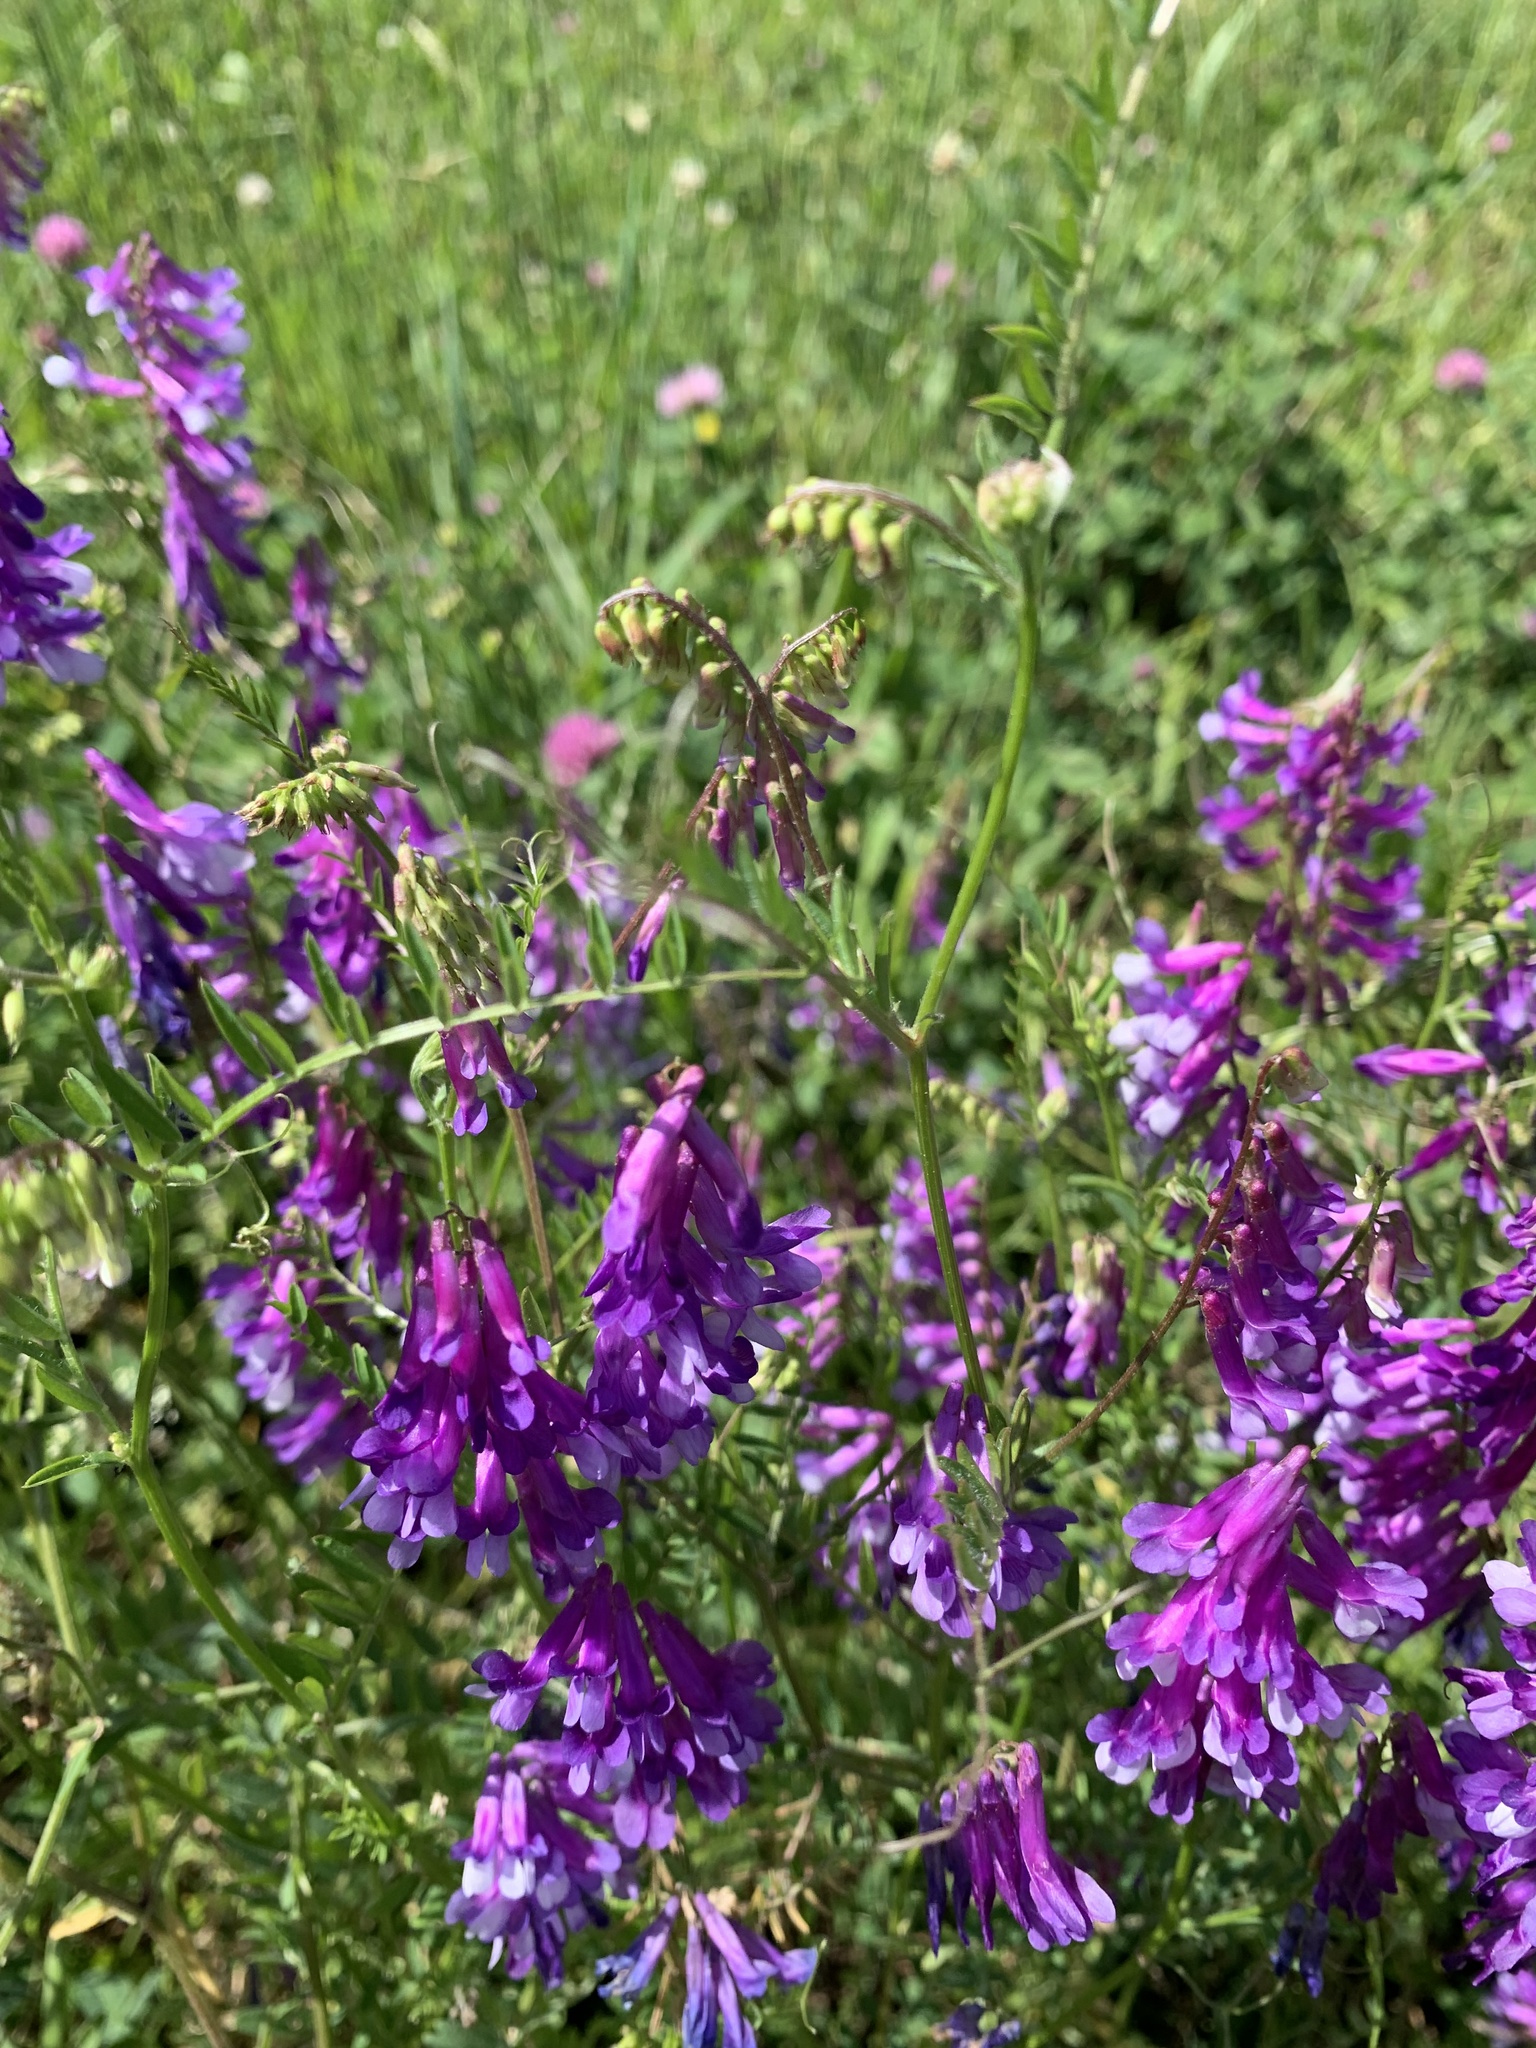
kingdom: Plantae
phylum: Tracheophyta
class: Magnoliopsida
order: Fabales
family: Fabaceae
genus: Vicia
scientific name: Vicia villosa
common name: Fodder vetch
